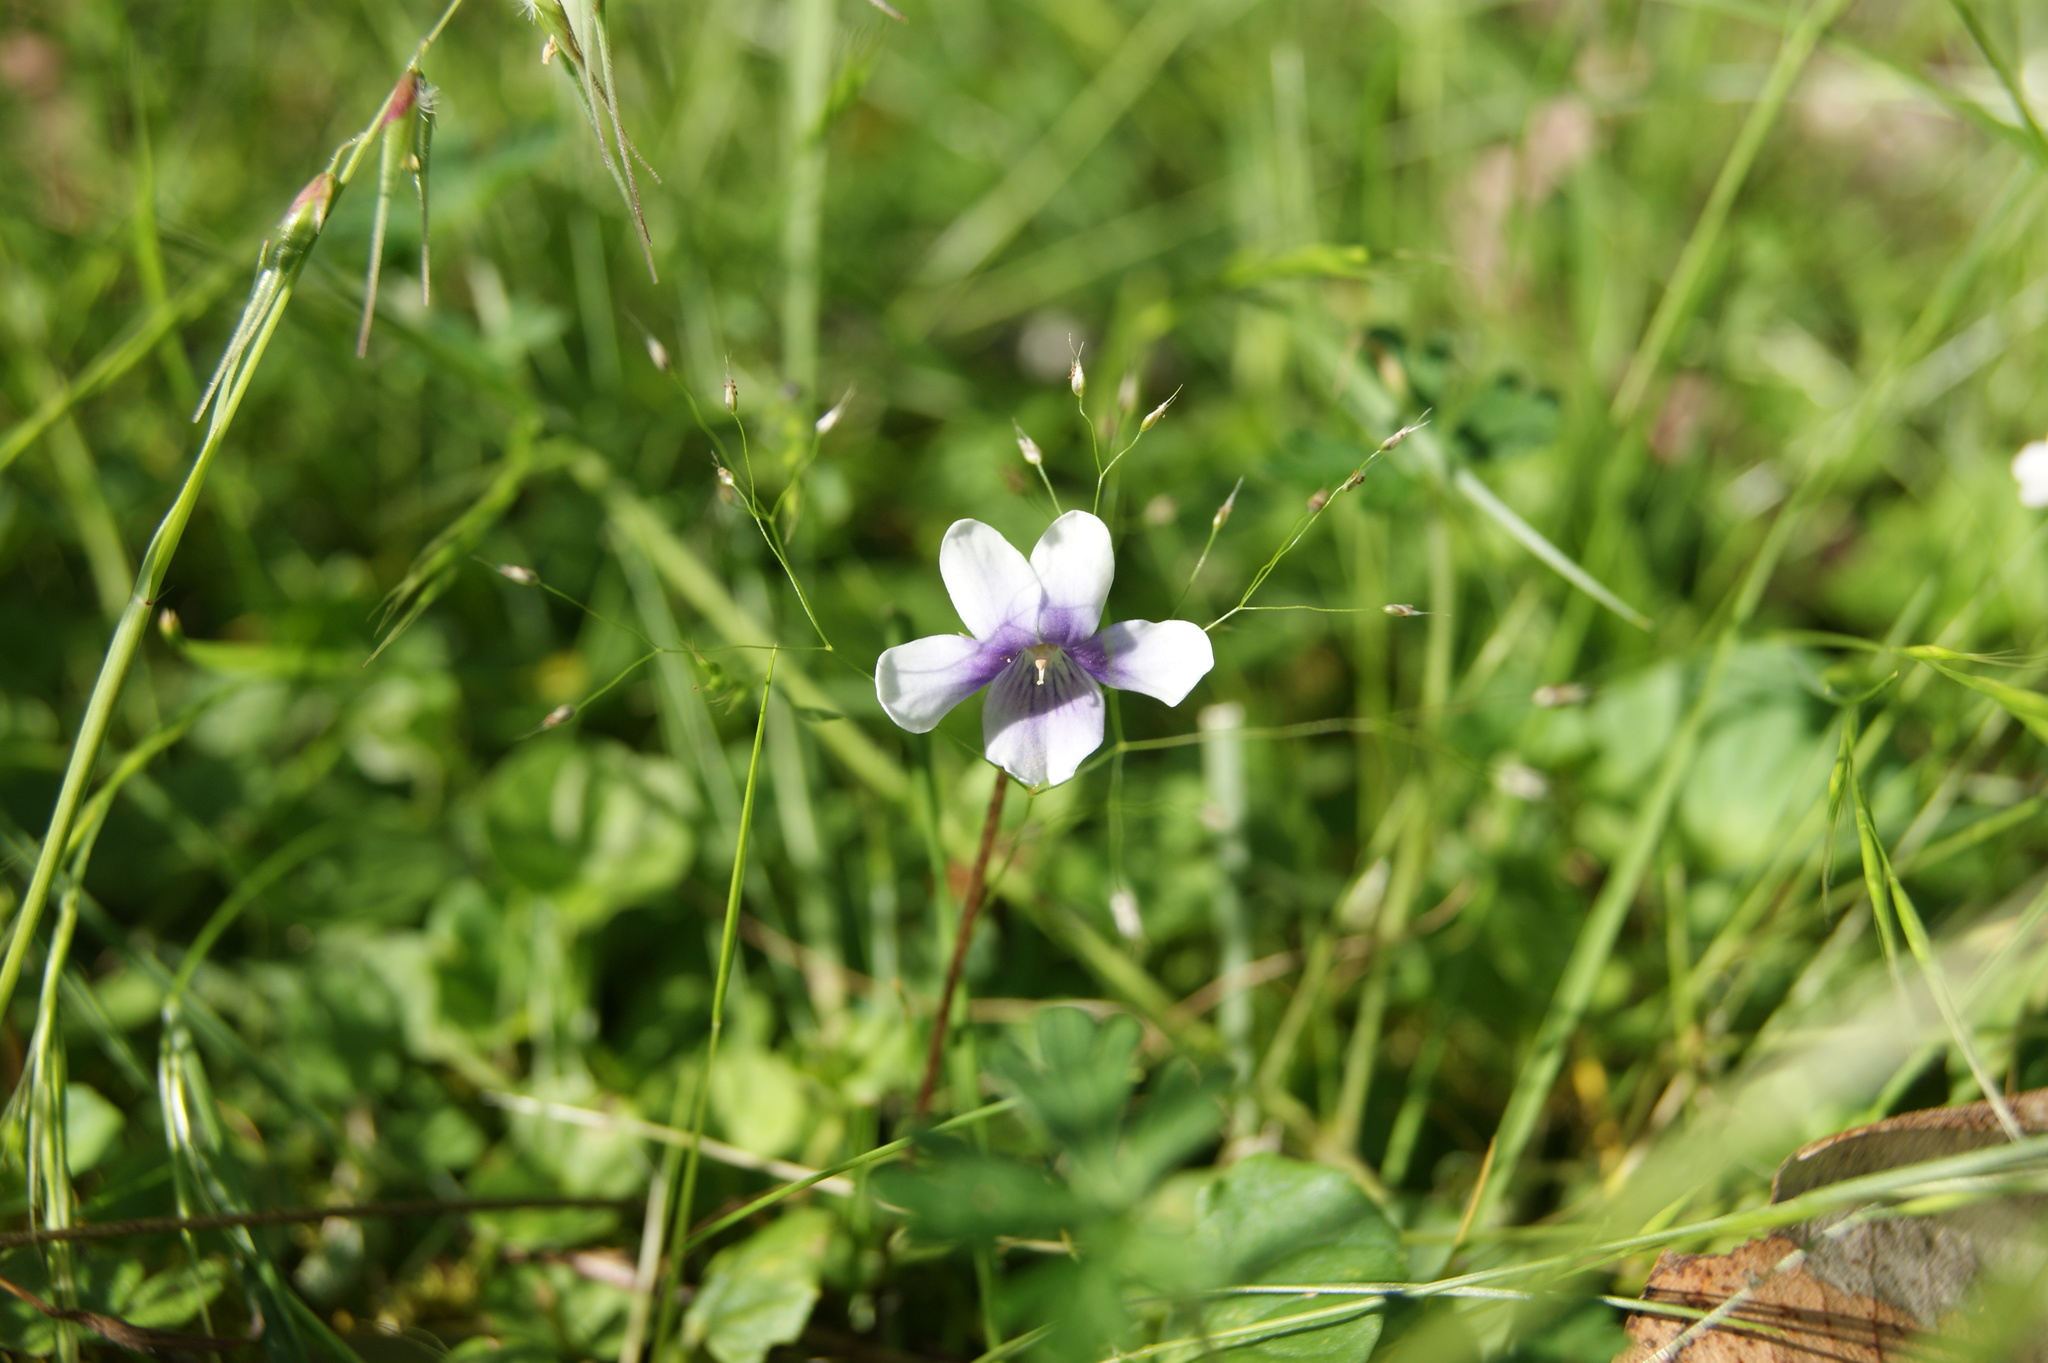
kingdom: Plantae
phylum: Tracheophyta
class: Magnoliopsida
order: Malpighiales
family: Violaceae
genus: Viola
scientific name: Viola hederacea
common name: Australian violet
